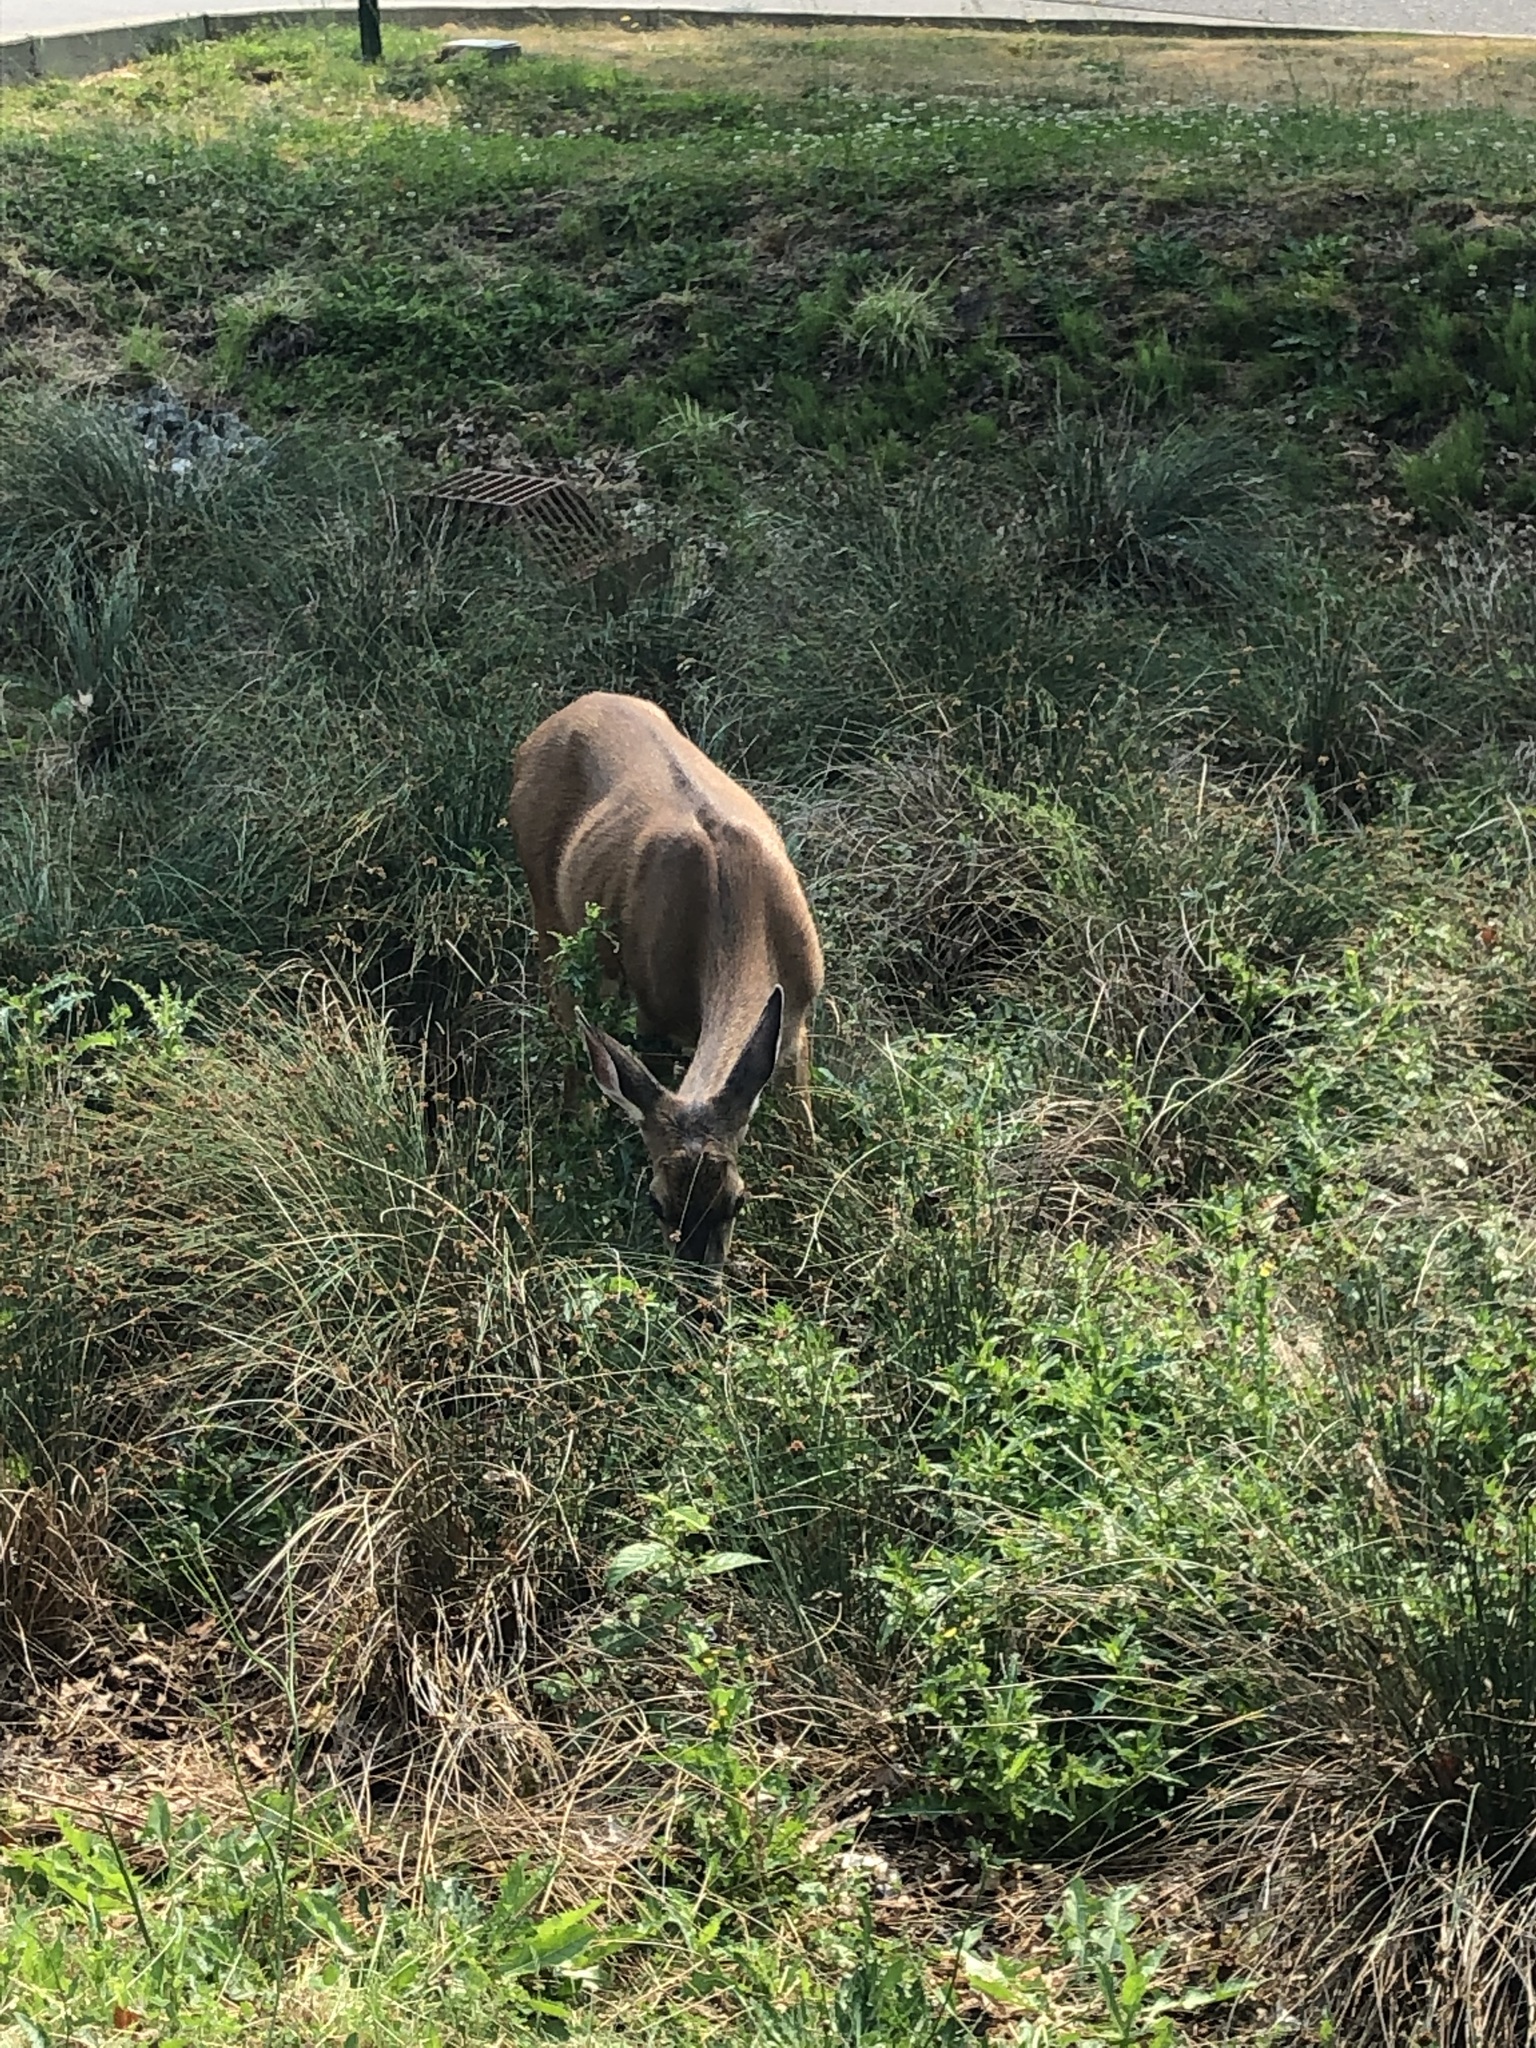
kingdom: Animalia
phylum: Chordata
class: Mammalia
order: Artiodactyla
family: Cervidae
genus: Odocoileus
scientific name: Odocoileus hemionus
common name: Mule deer
